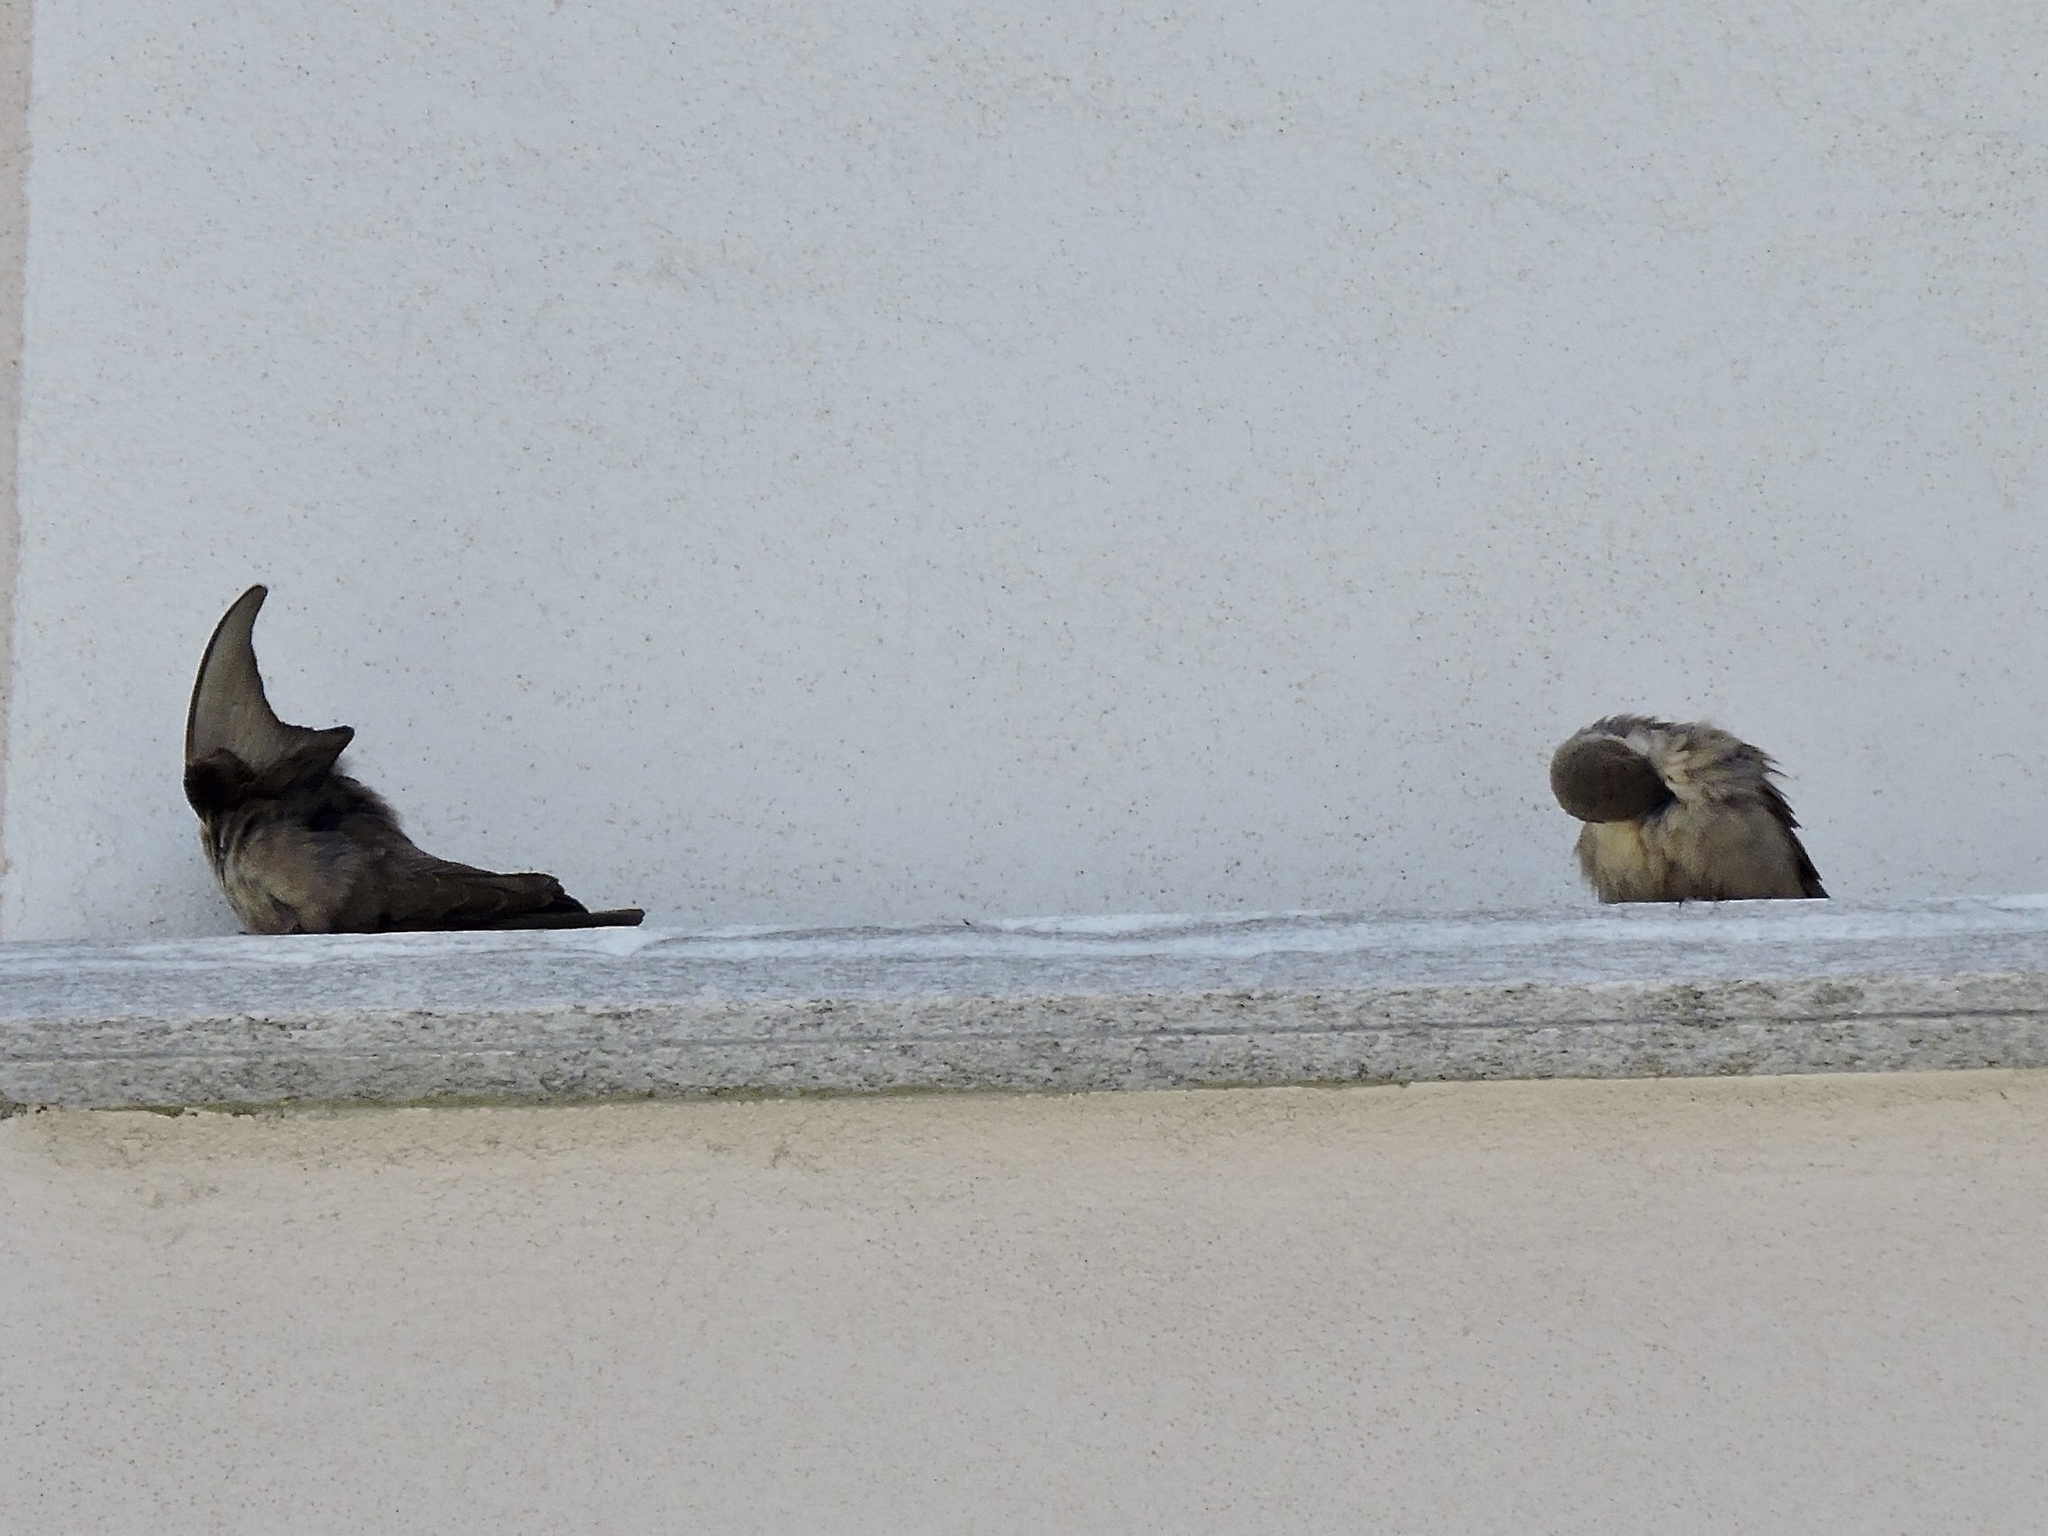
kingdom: Animalia
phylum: Chordata
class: Aves
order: Passeriformes
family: Hirundinidae
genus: Ptyonoprogne
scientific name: Ptyonoprogne rupestris
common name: Eurasian crag martin
